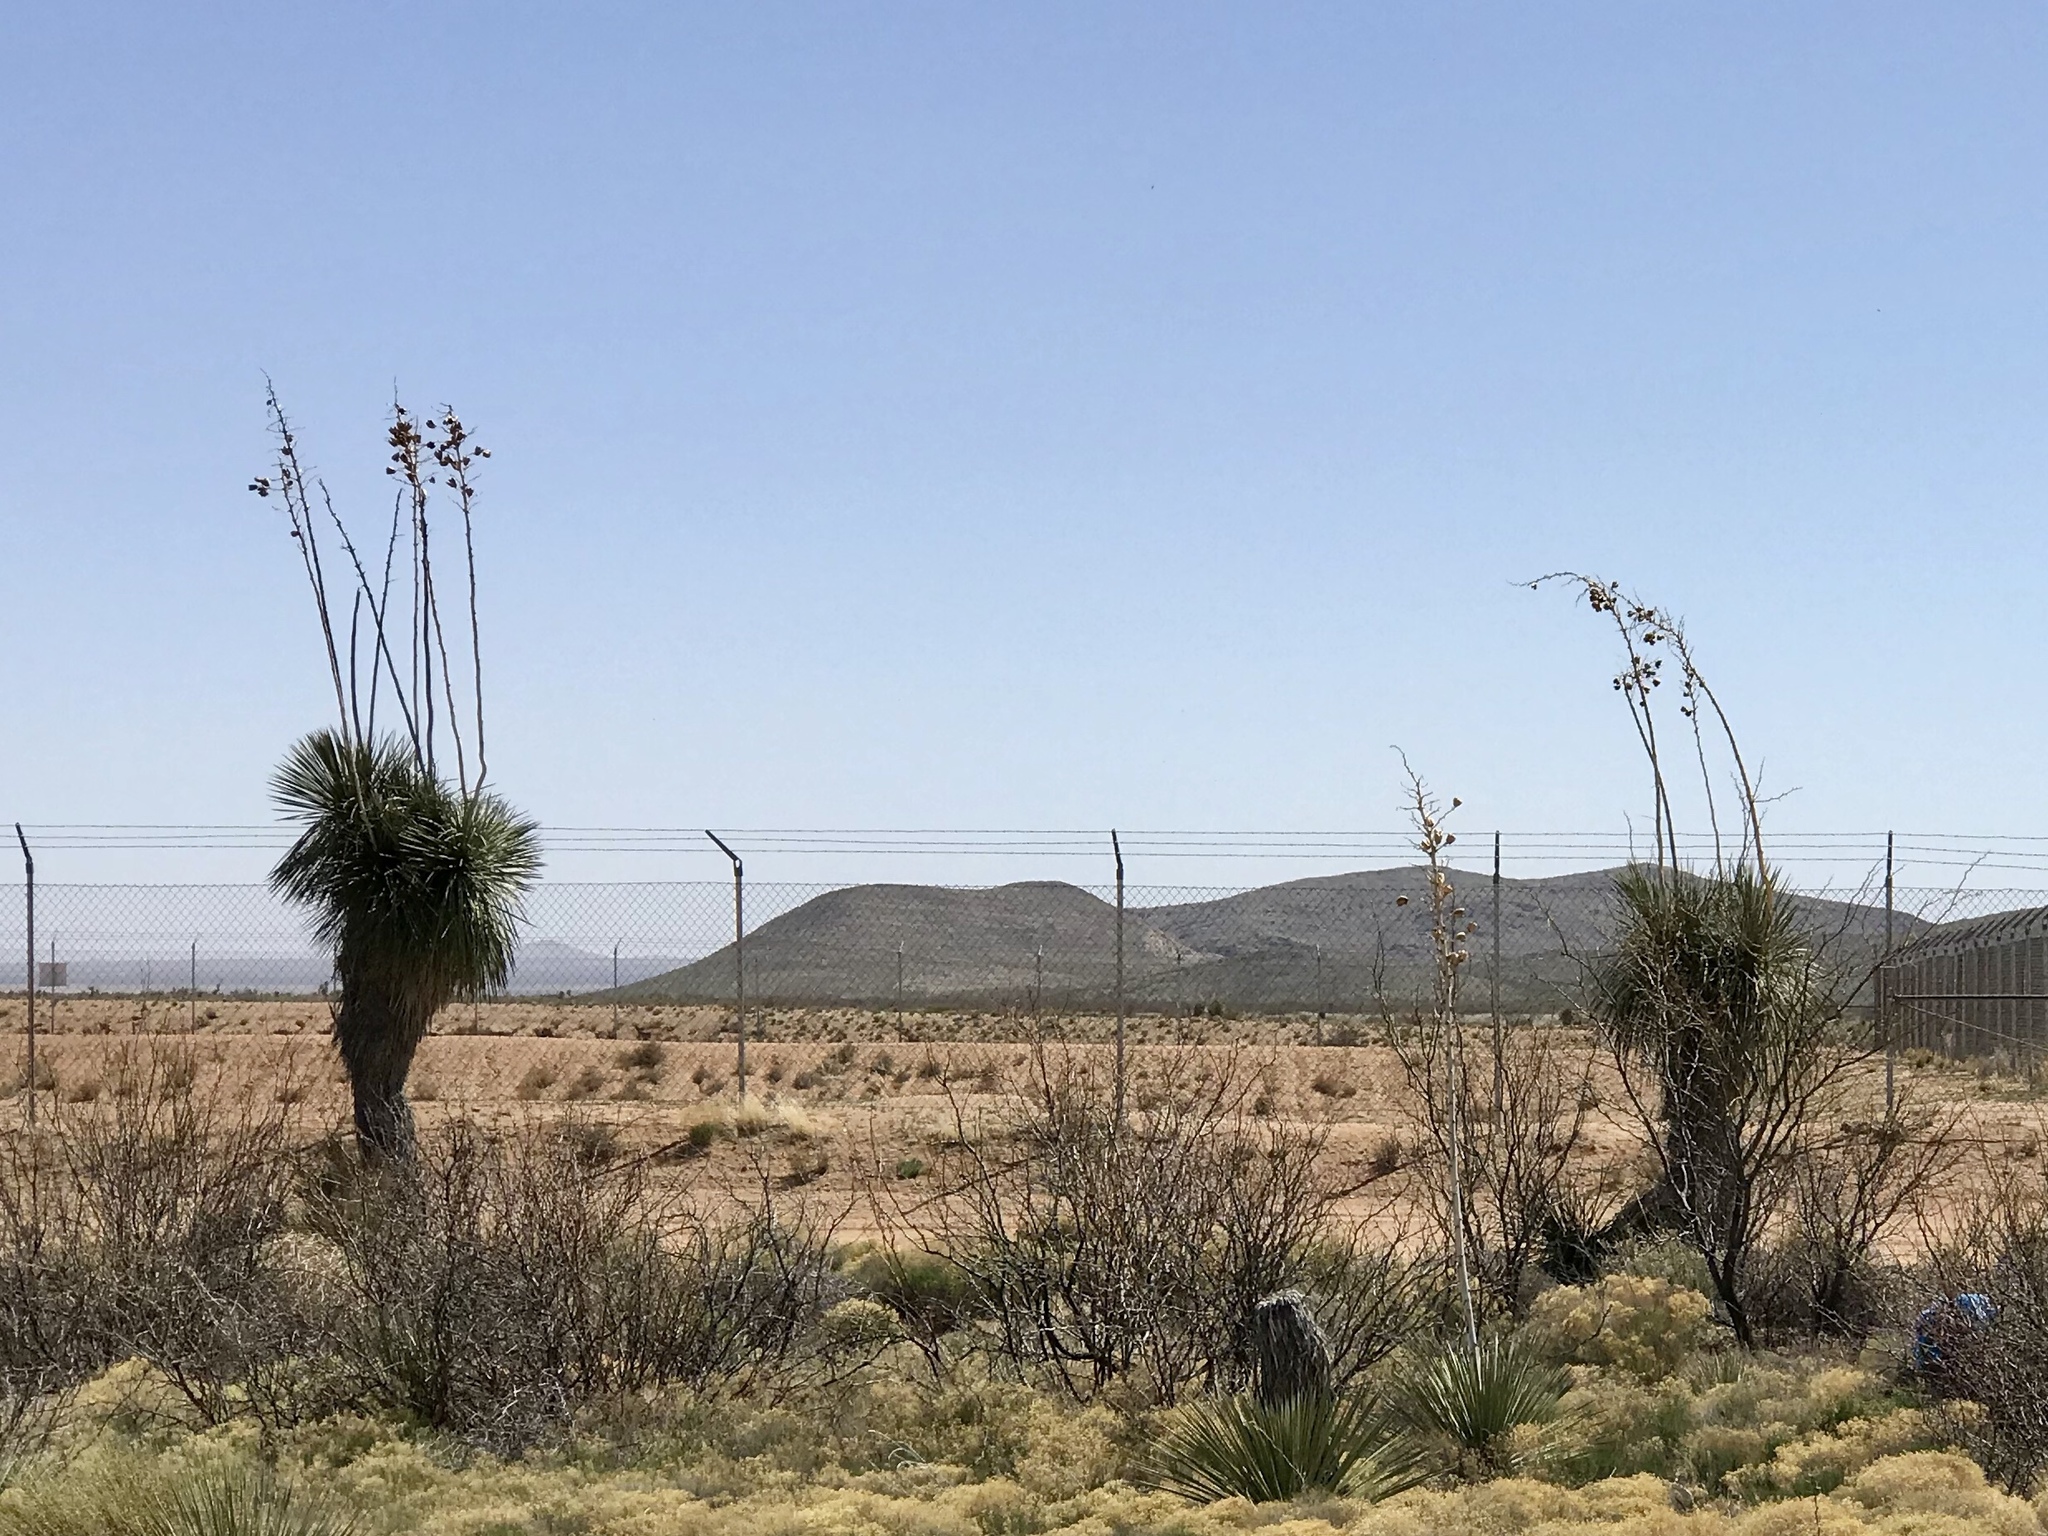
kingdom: Plantae
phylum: Tracheophyta
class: Liliopsida
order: Asparagales
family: Asparagaceae
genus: Yucca
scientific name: Yucca elata
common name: Palmella
